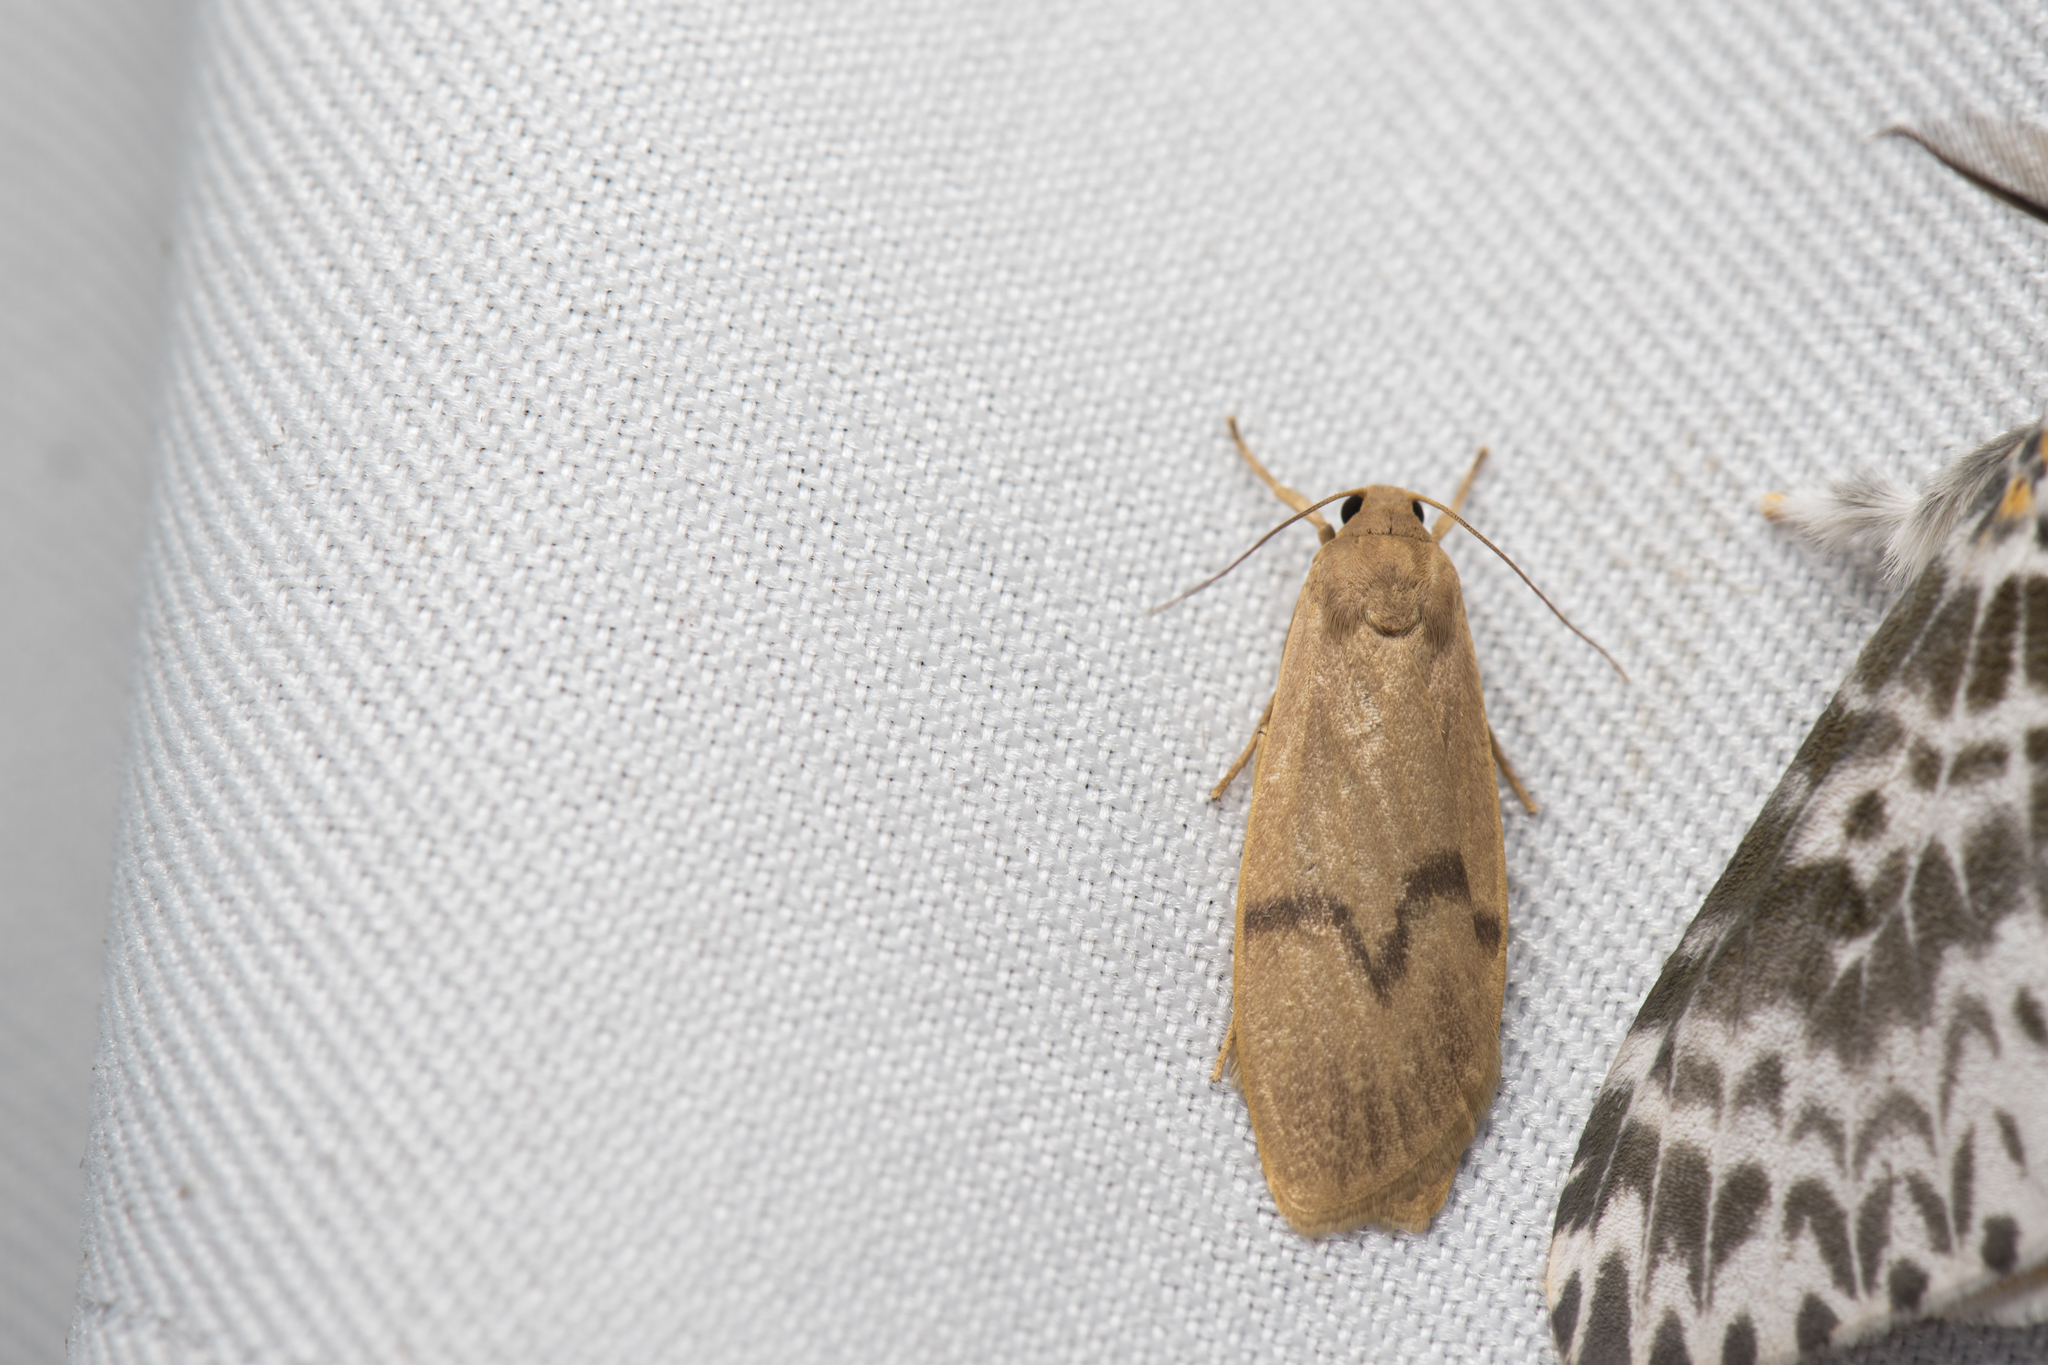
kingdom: Animalia
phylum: Arthropoda
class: Insecta
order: Lepidoptera
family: Erebidae
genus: Teuloma
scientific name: Teuloma tainebula
